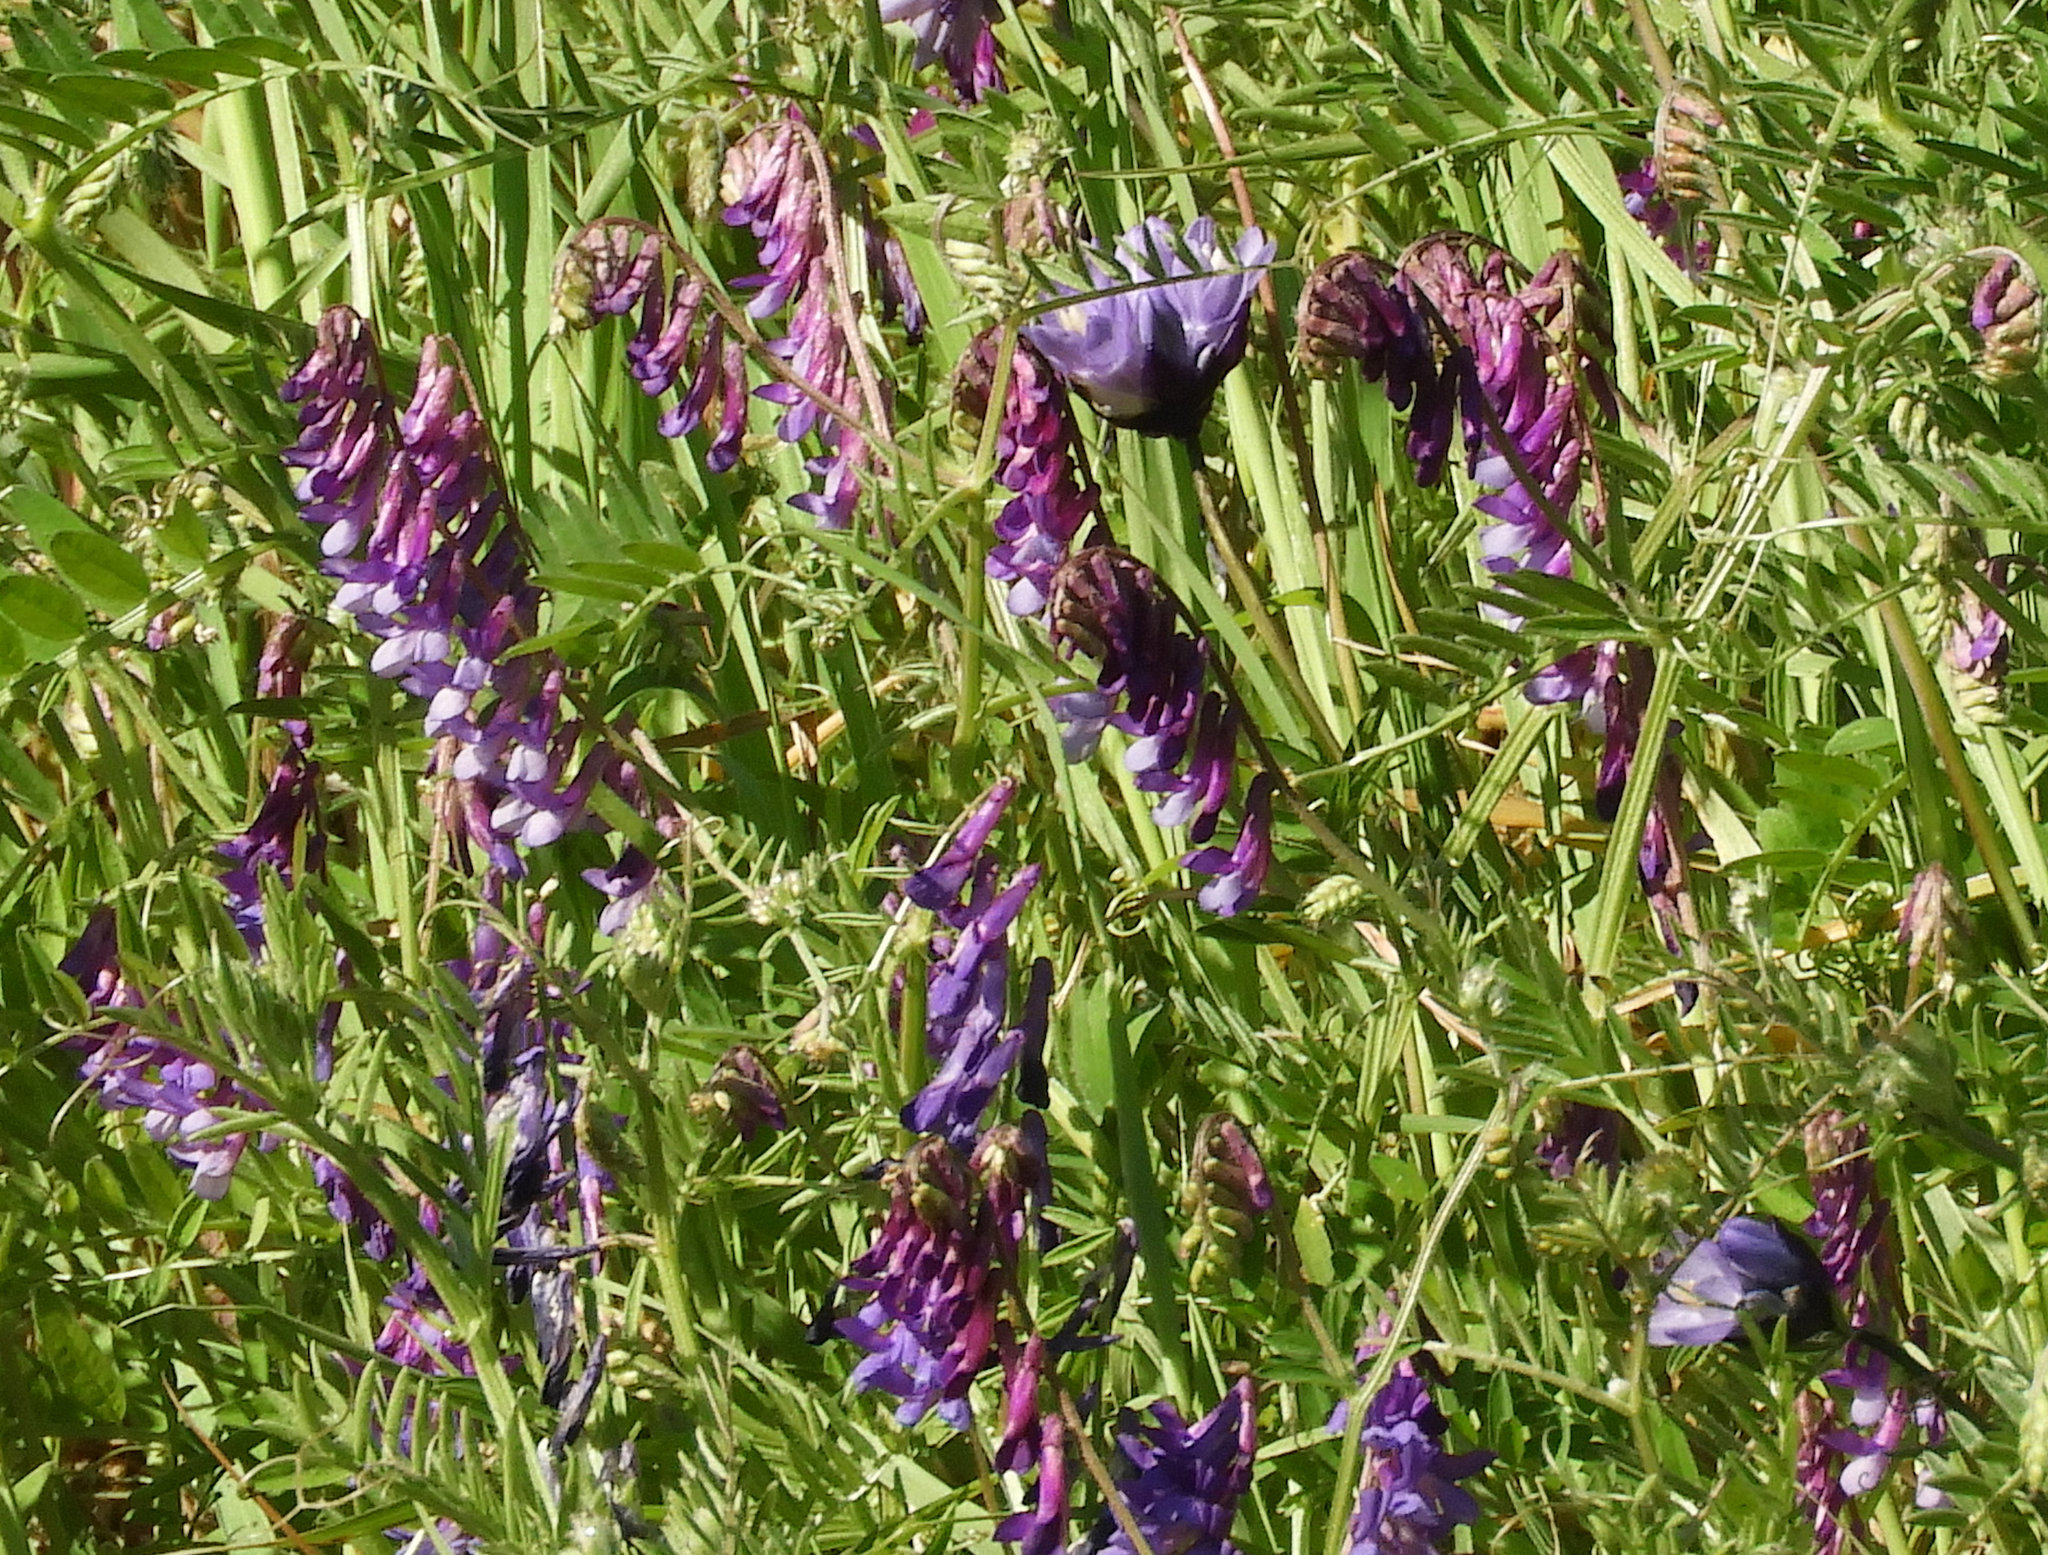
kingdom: Plantae
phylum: Tracheophyta
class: Magnoliopsida
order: Fabales
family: Fabaceae
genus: Vicia
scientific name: Vicia villosa
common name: Fodder vetch
